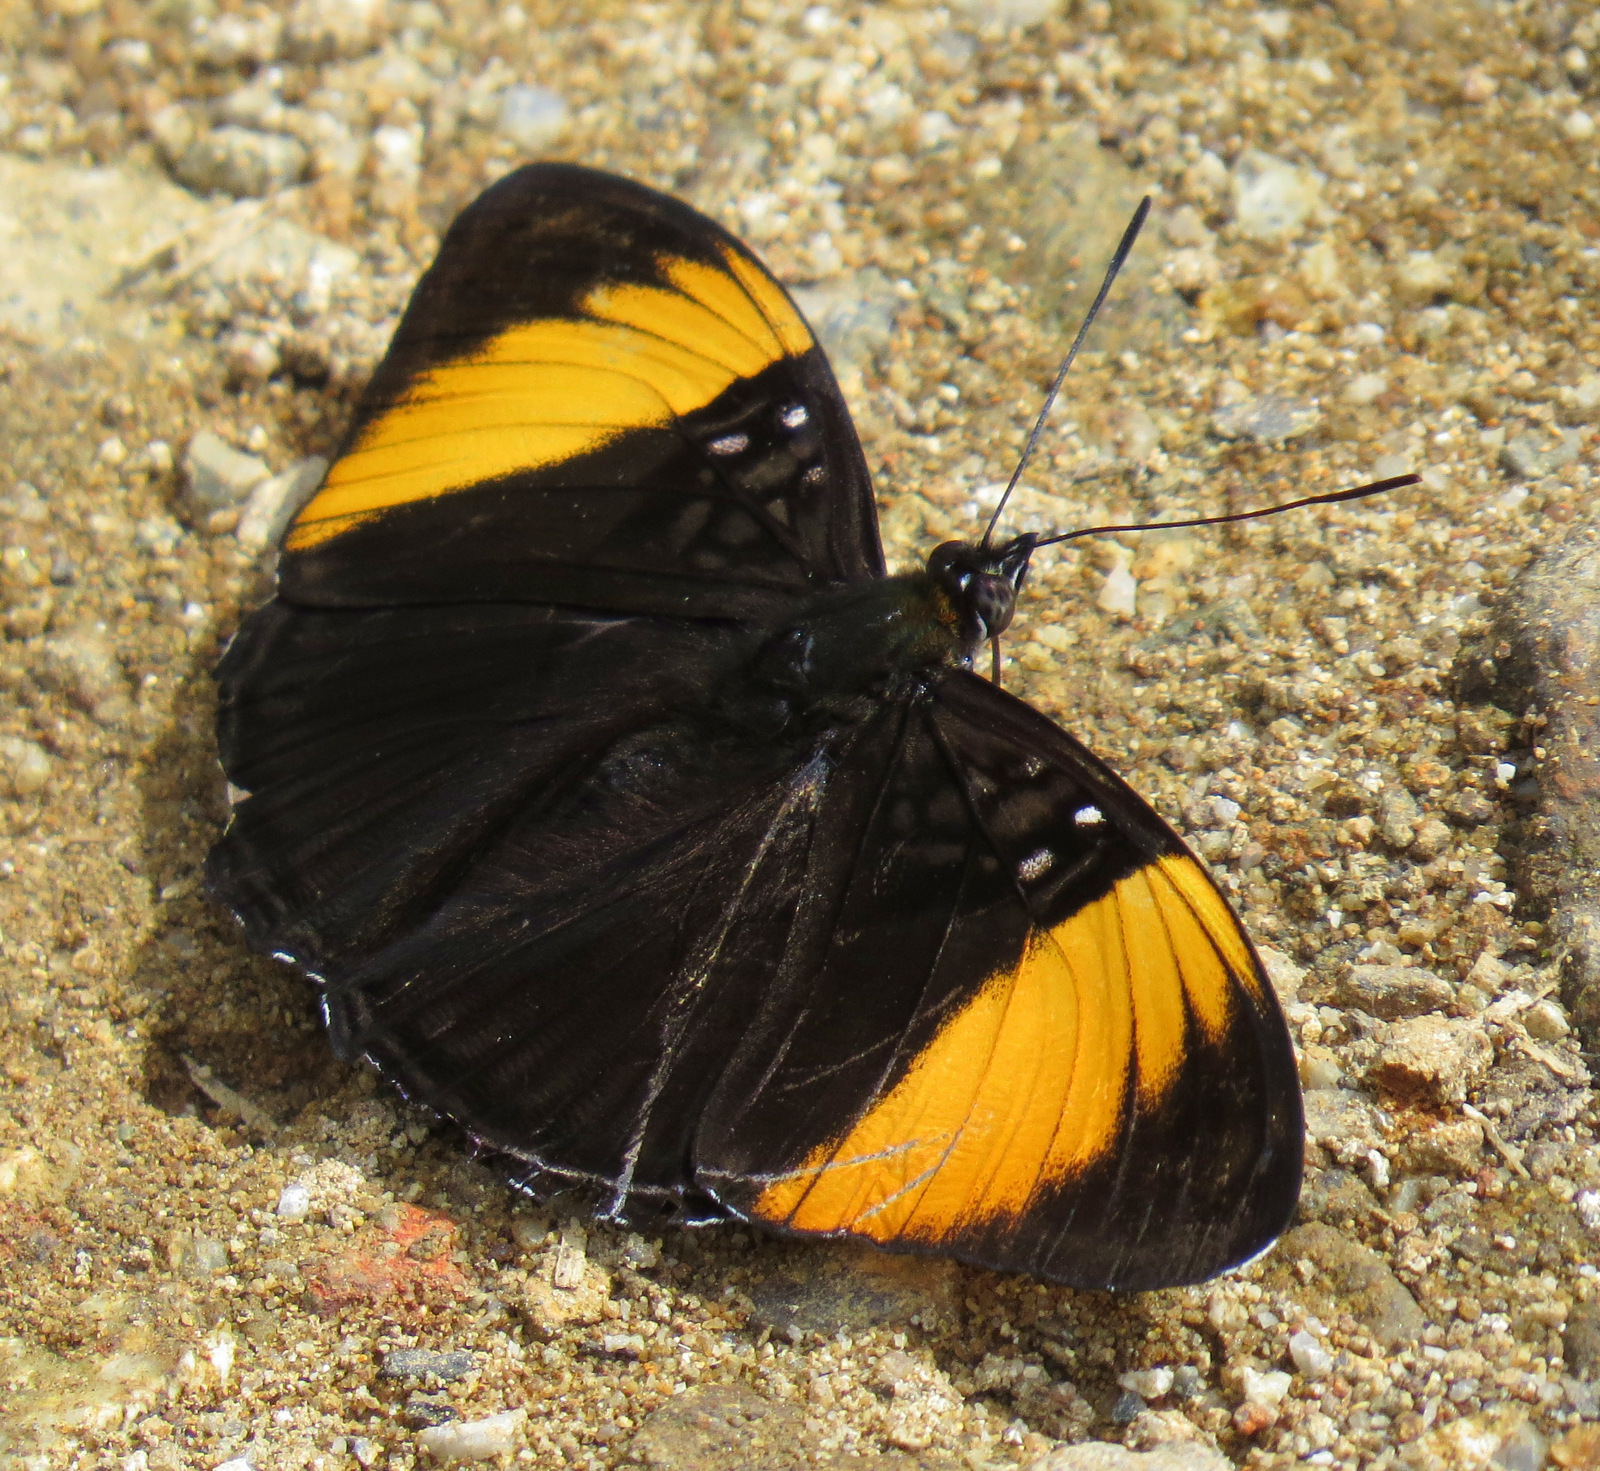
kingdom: Animalia
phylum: Arthropoda
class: Insecta
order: Lepidoptera
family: Nymphalidae
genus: Limenitis
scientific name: Limenitis melanthe
